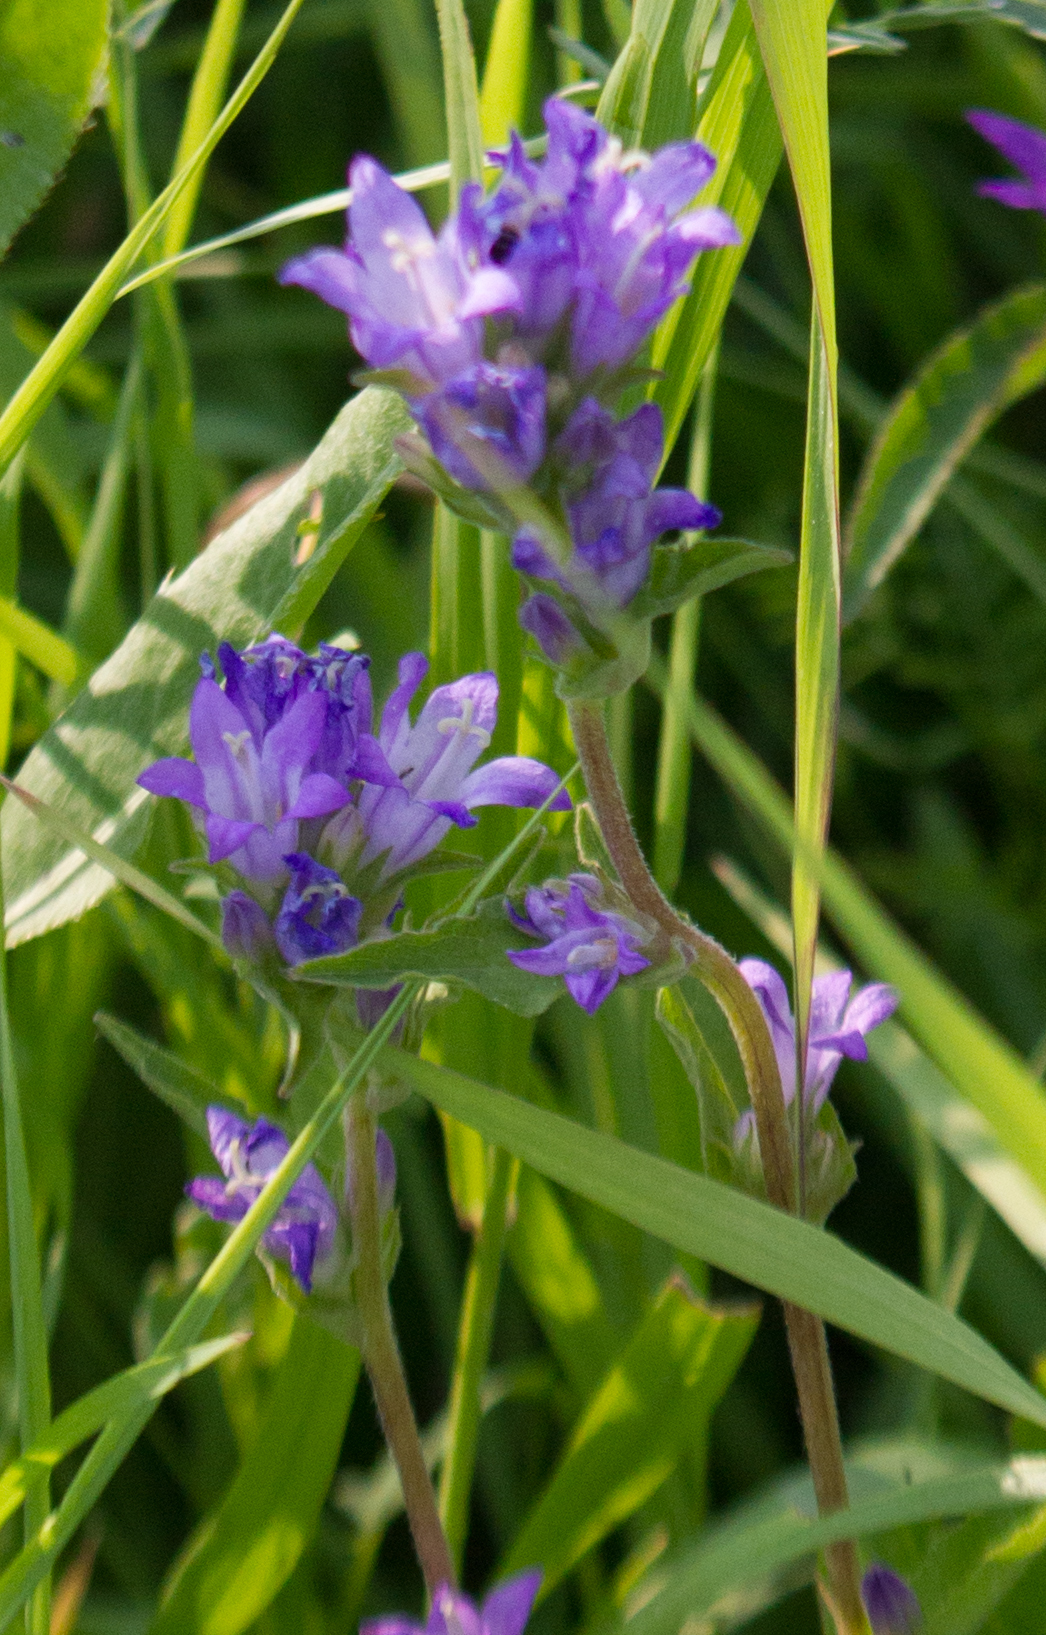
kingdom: Plantae
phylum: Tracheophyta
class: Magnoliopsida
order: Asterales
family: Campanulaceae
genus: Campanula
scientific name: Campanula glomerata
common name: Clustered bellflower
